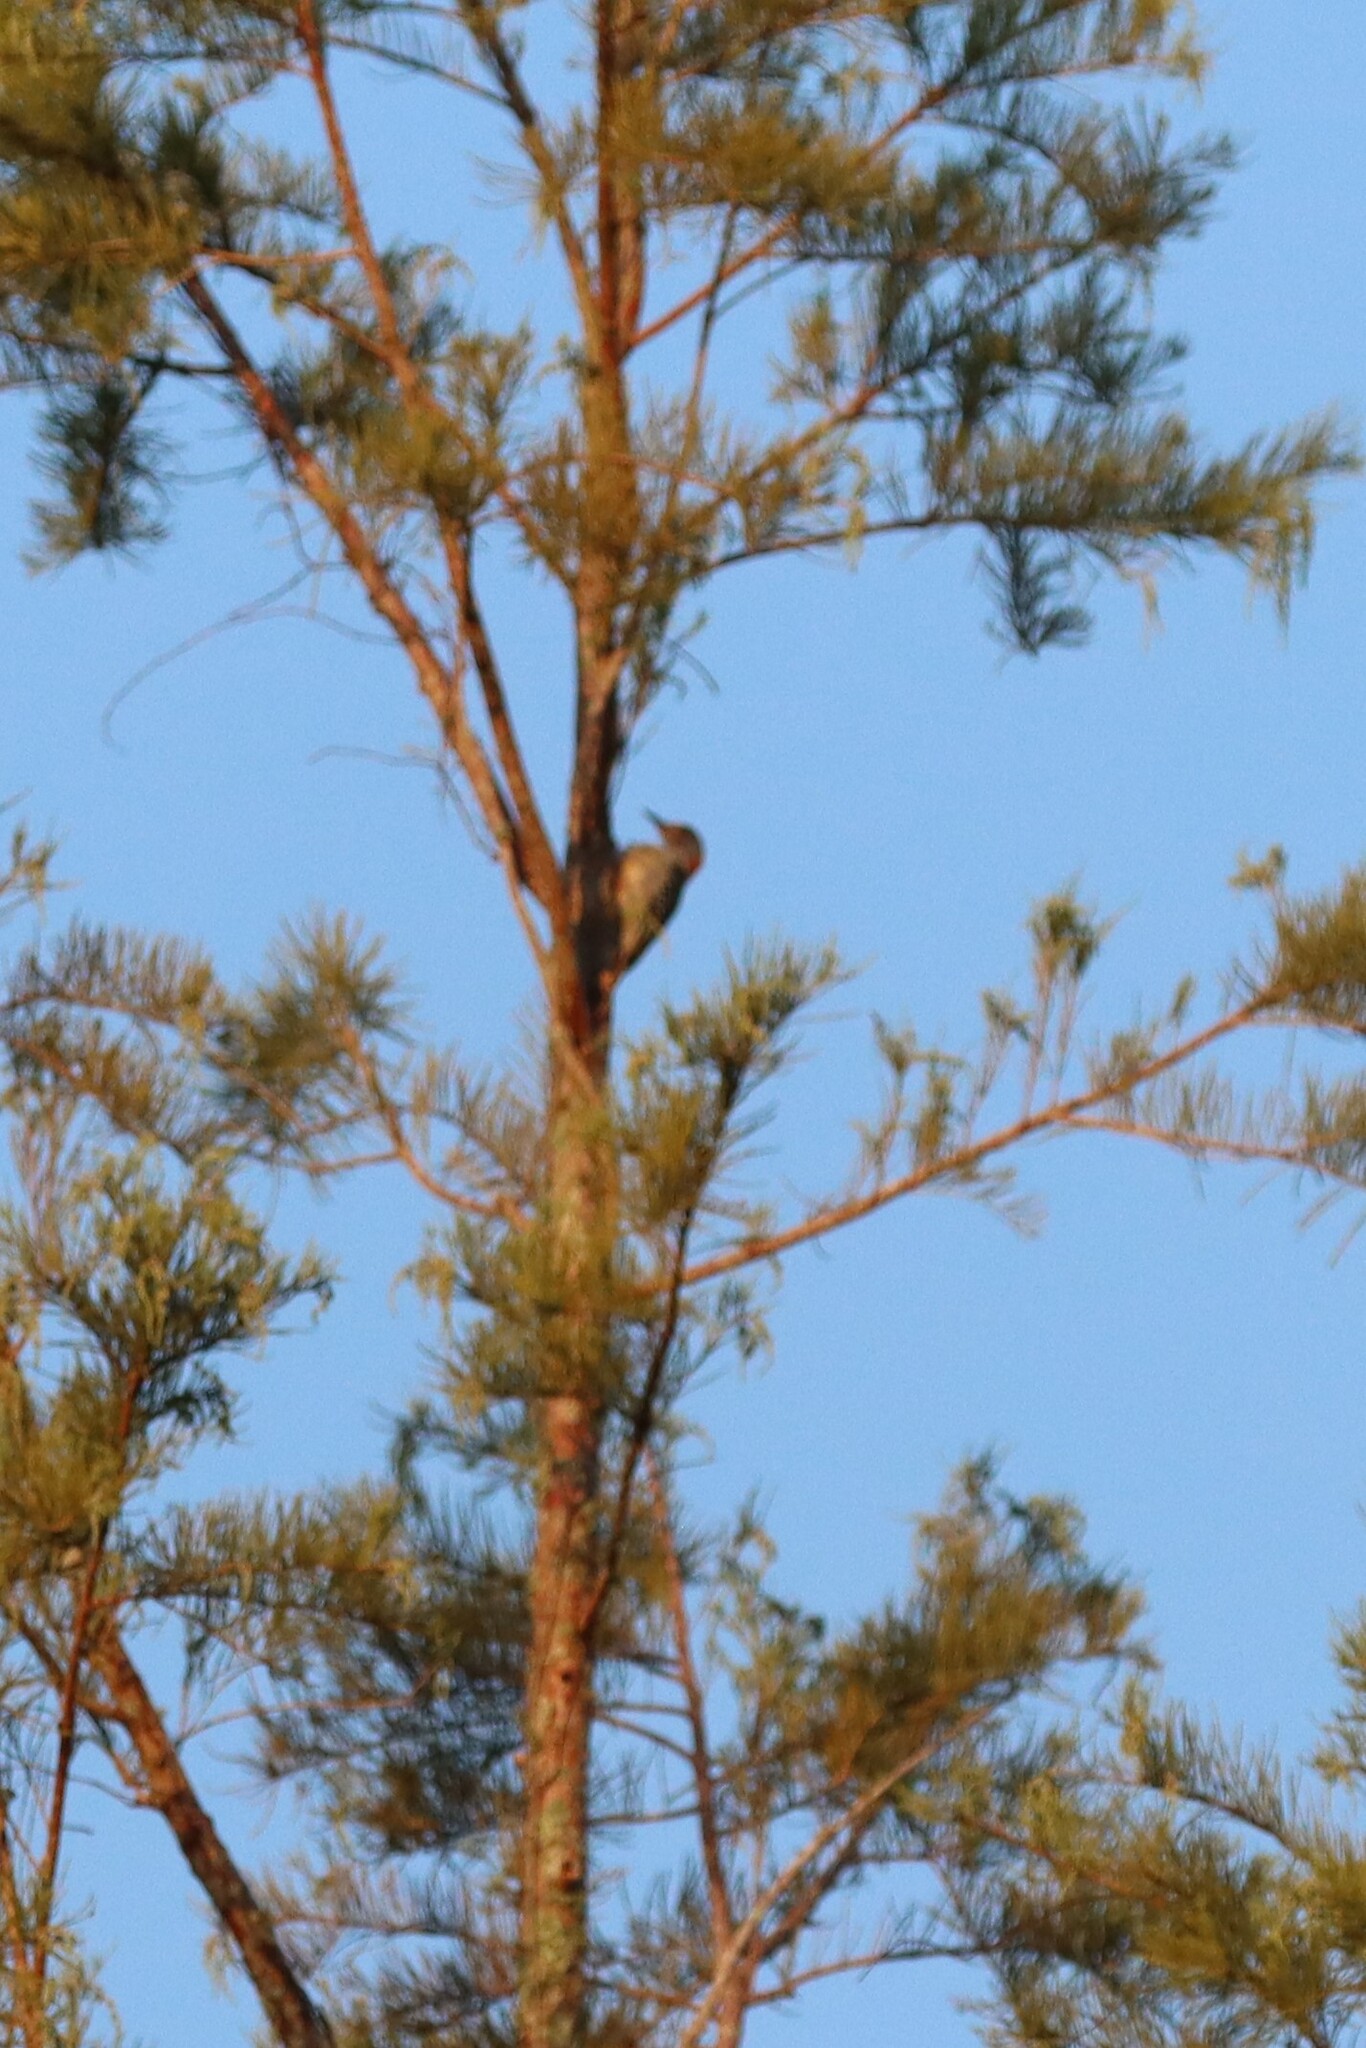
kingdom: Animalia
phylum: Chordata
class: Aves
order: Piciformes
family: Picidae
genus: Melanerpes
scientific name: Melanerpes carolinus
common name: Red-bellied woodpecker
